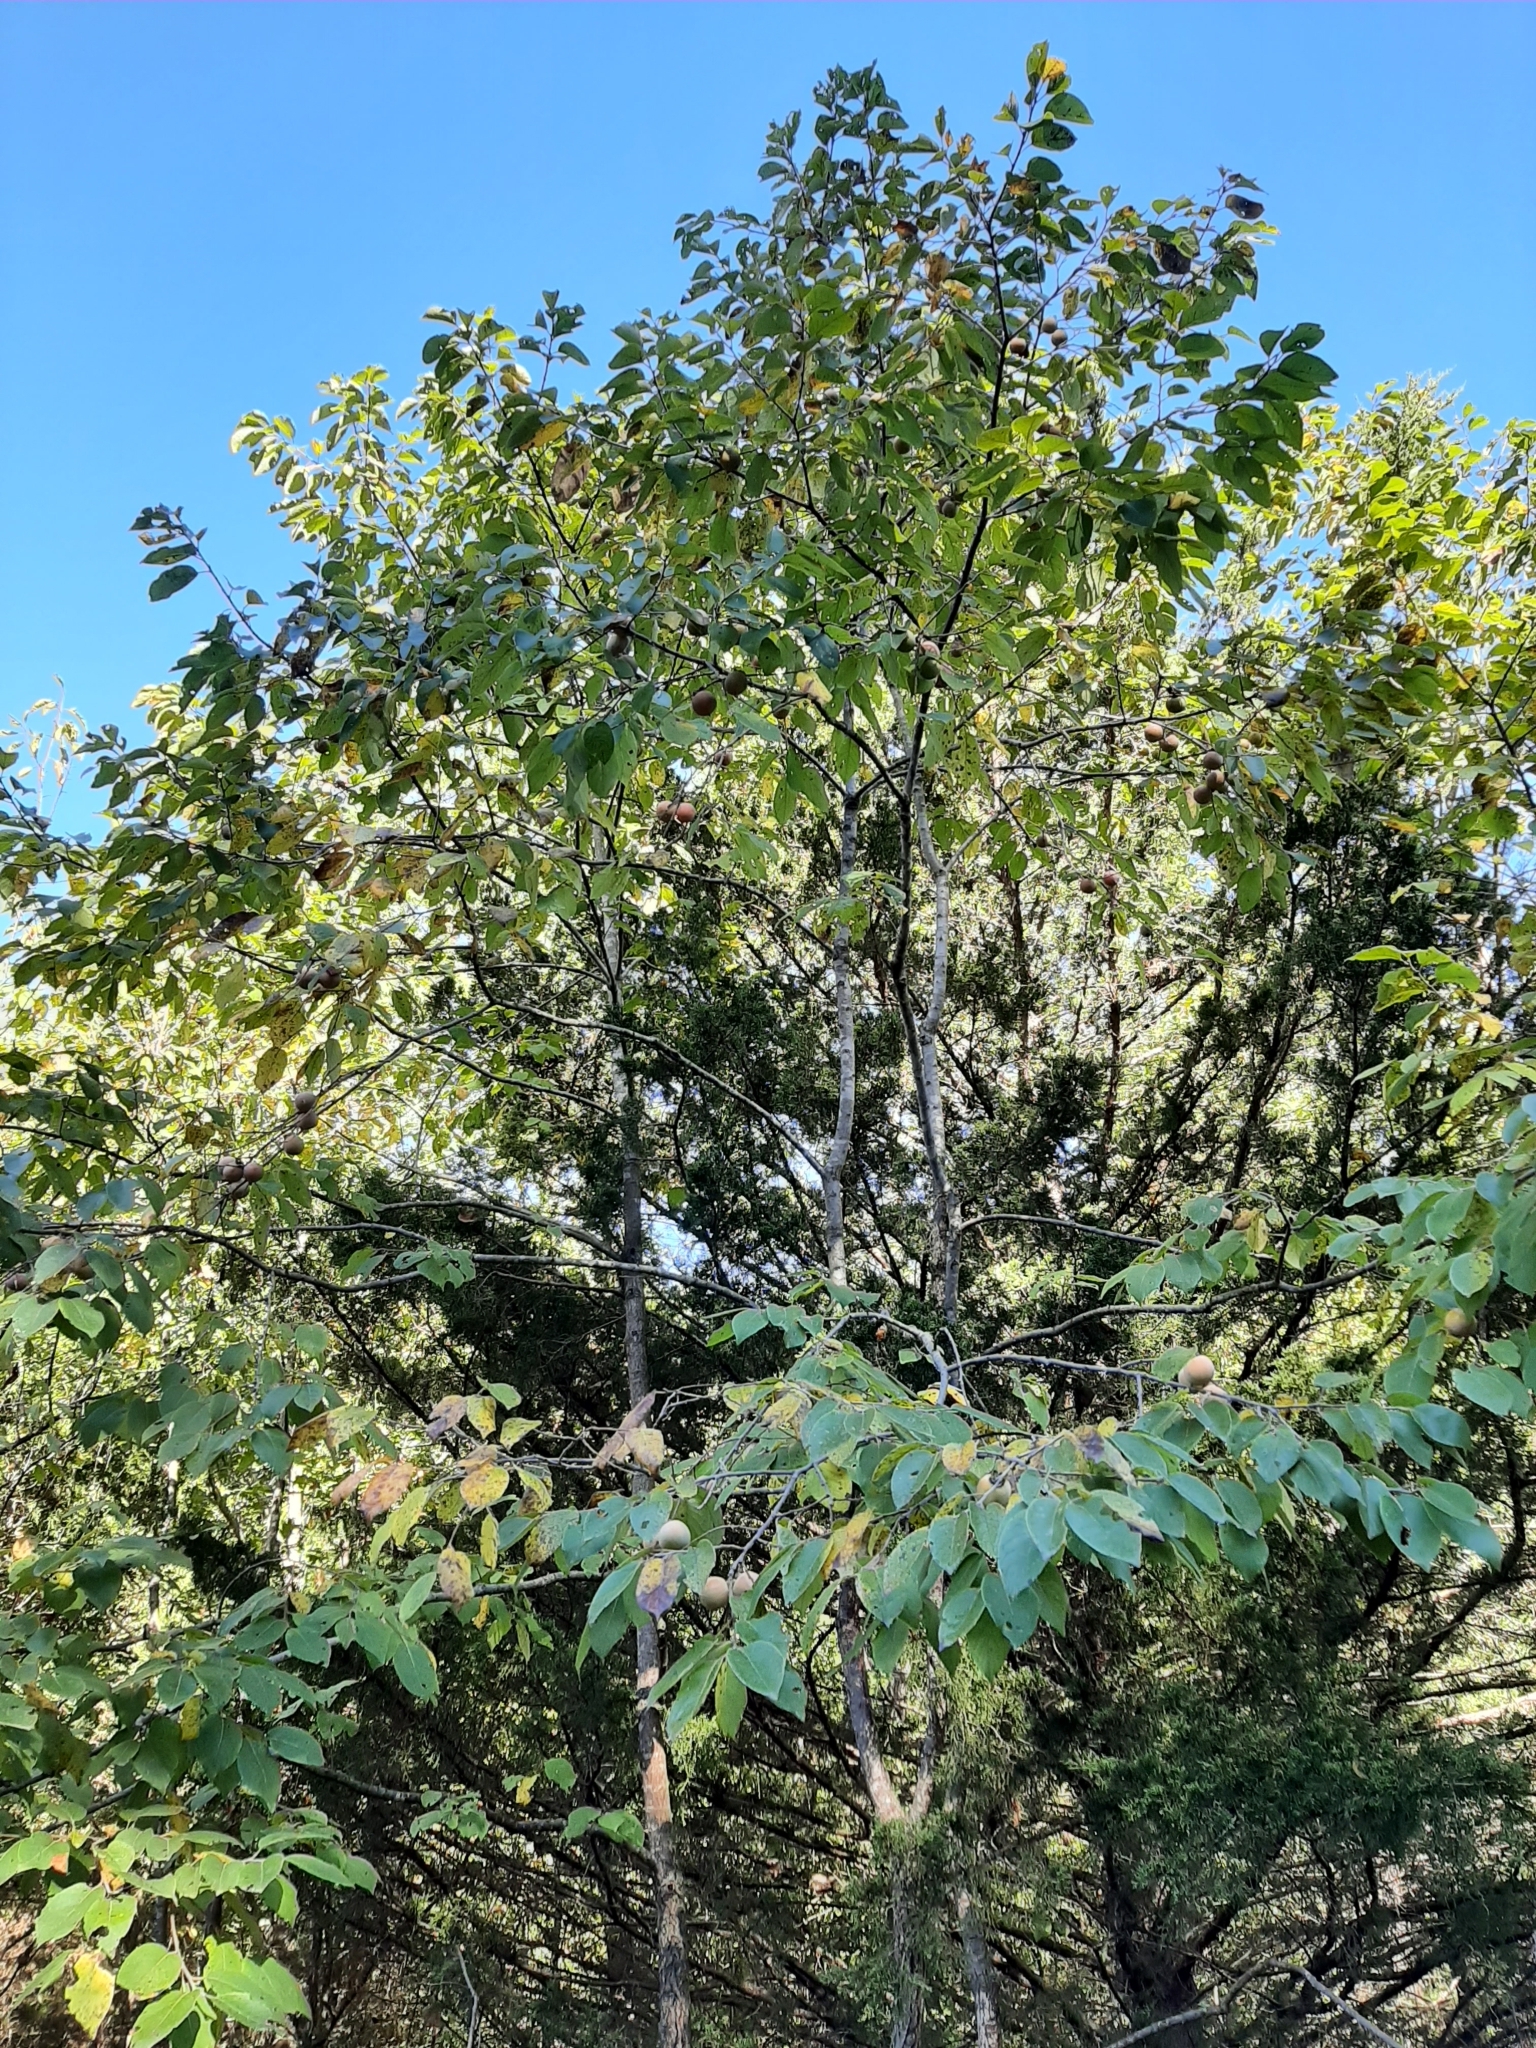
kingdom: Plantae
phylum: Tracheophyta
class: Magnoliopsida
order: Ericales
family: Ebenaceae
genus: Diospyros
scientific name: Diospyros virginiana
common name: Persimmon
